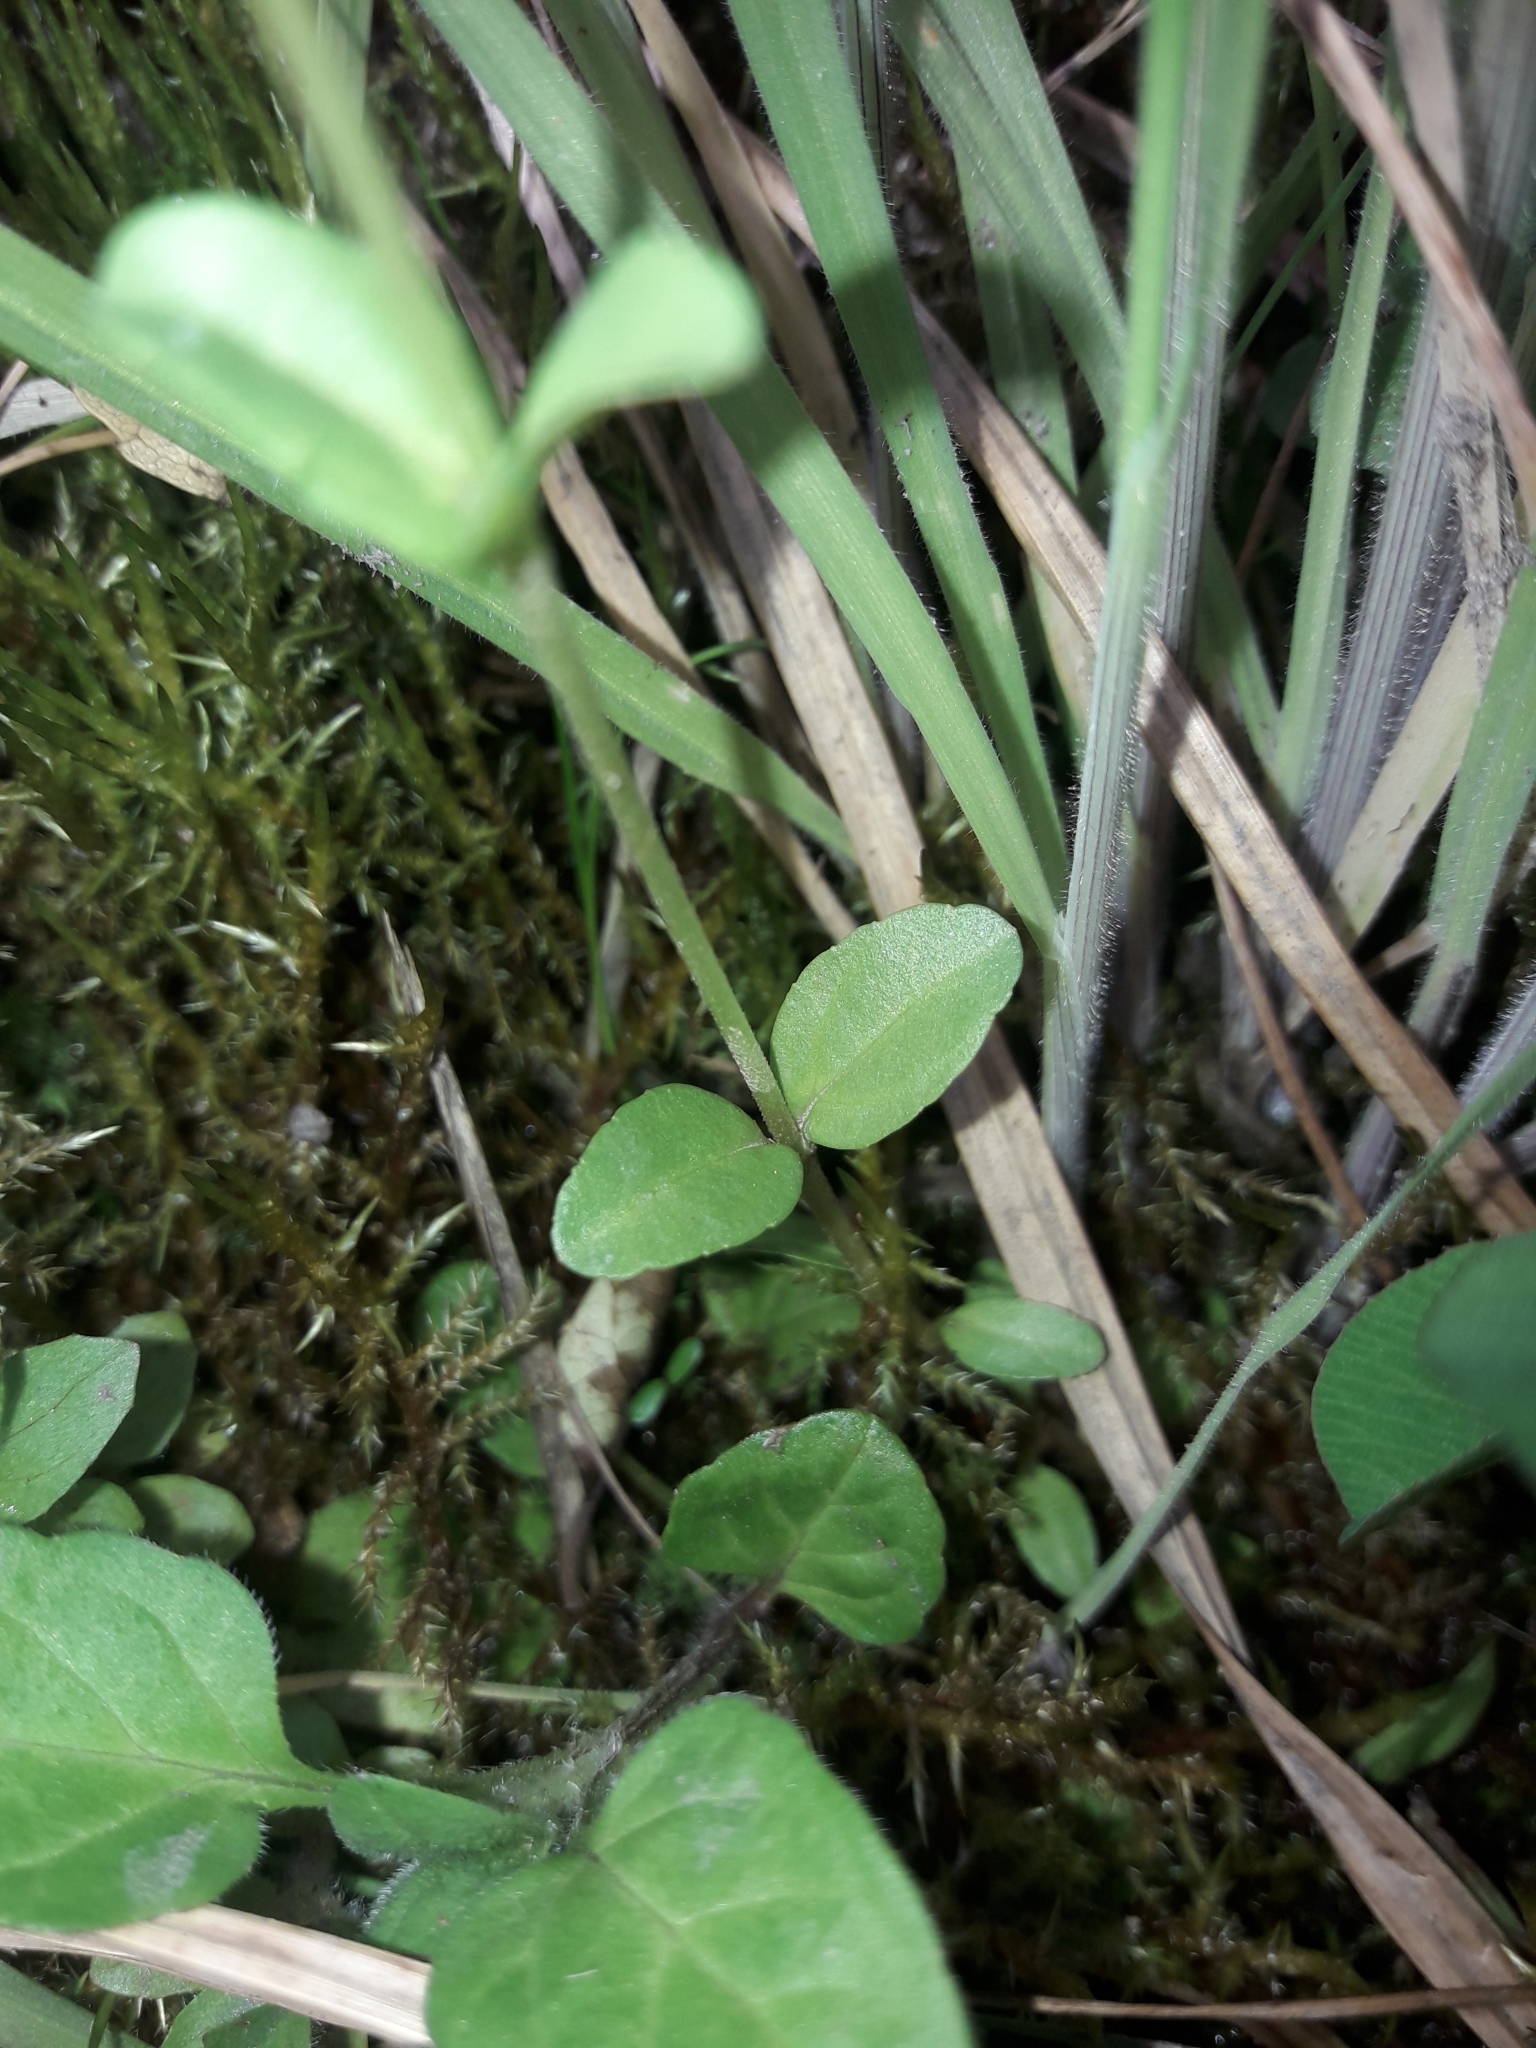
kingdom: Plantae
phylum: Tracheophyta
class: Magnoliopsida
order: Lamiales
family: Plantaginaceae
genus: Veronica
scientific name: Veronica serpyllifolia
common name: Thyme-leaved speedwell
